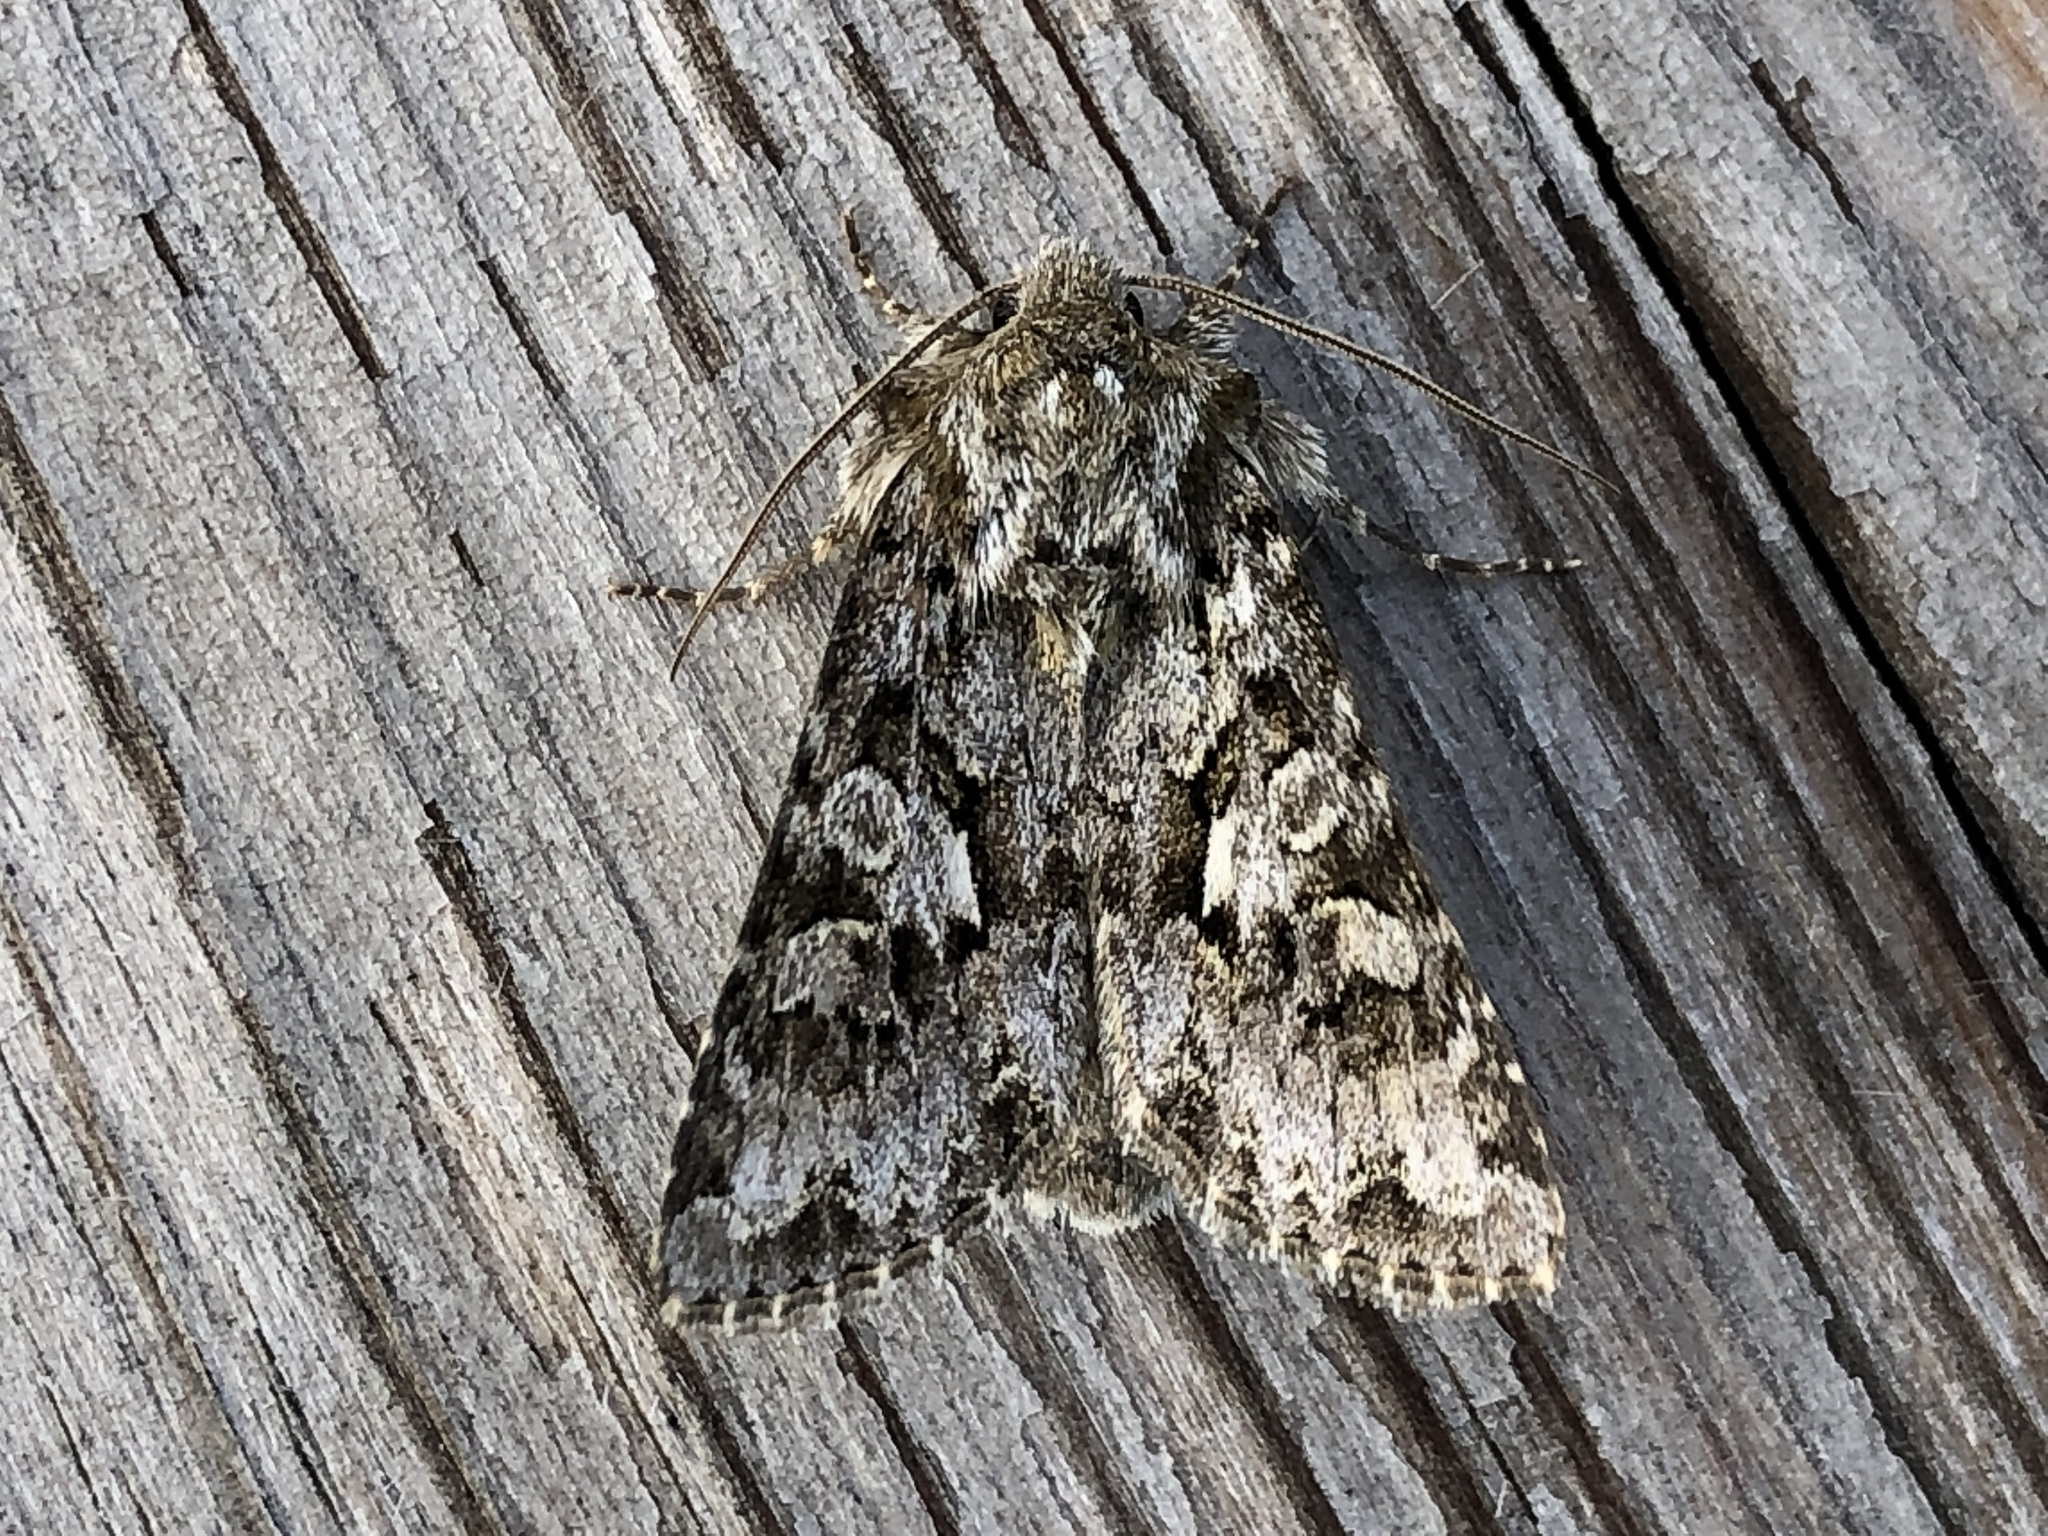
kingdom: Animalia
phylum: Arthropoda
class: Insecta
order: Lepidoptera
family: Noctuidae
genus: Hada
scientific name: Hada plebeja
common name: Shears
